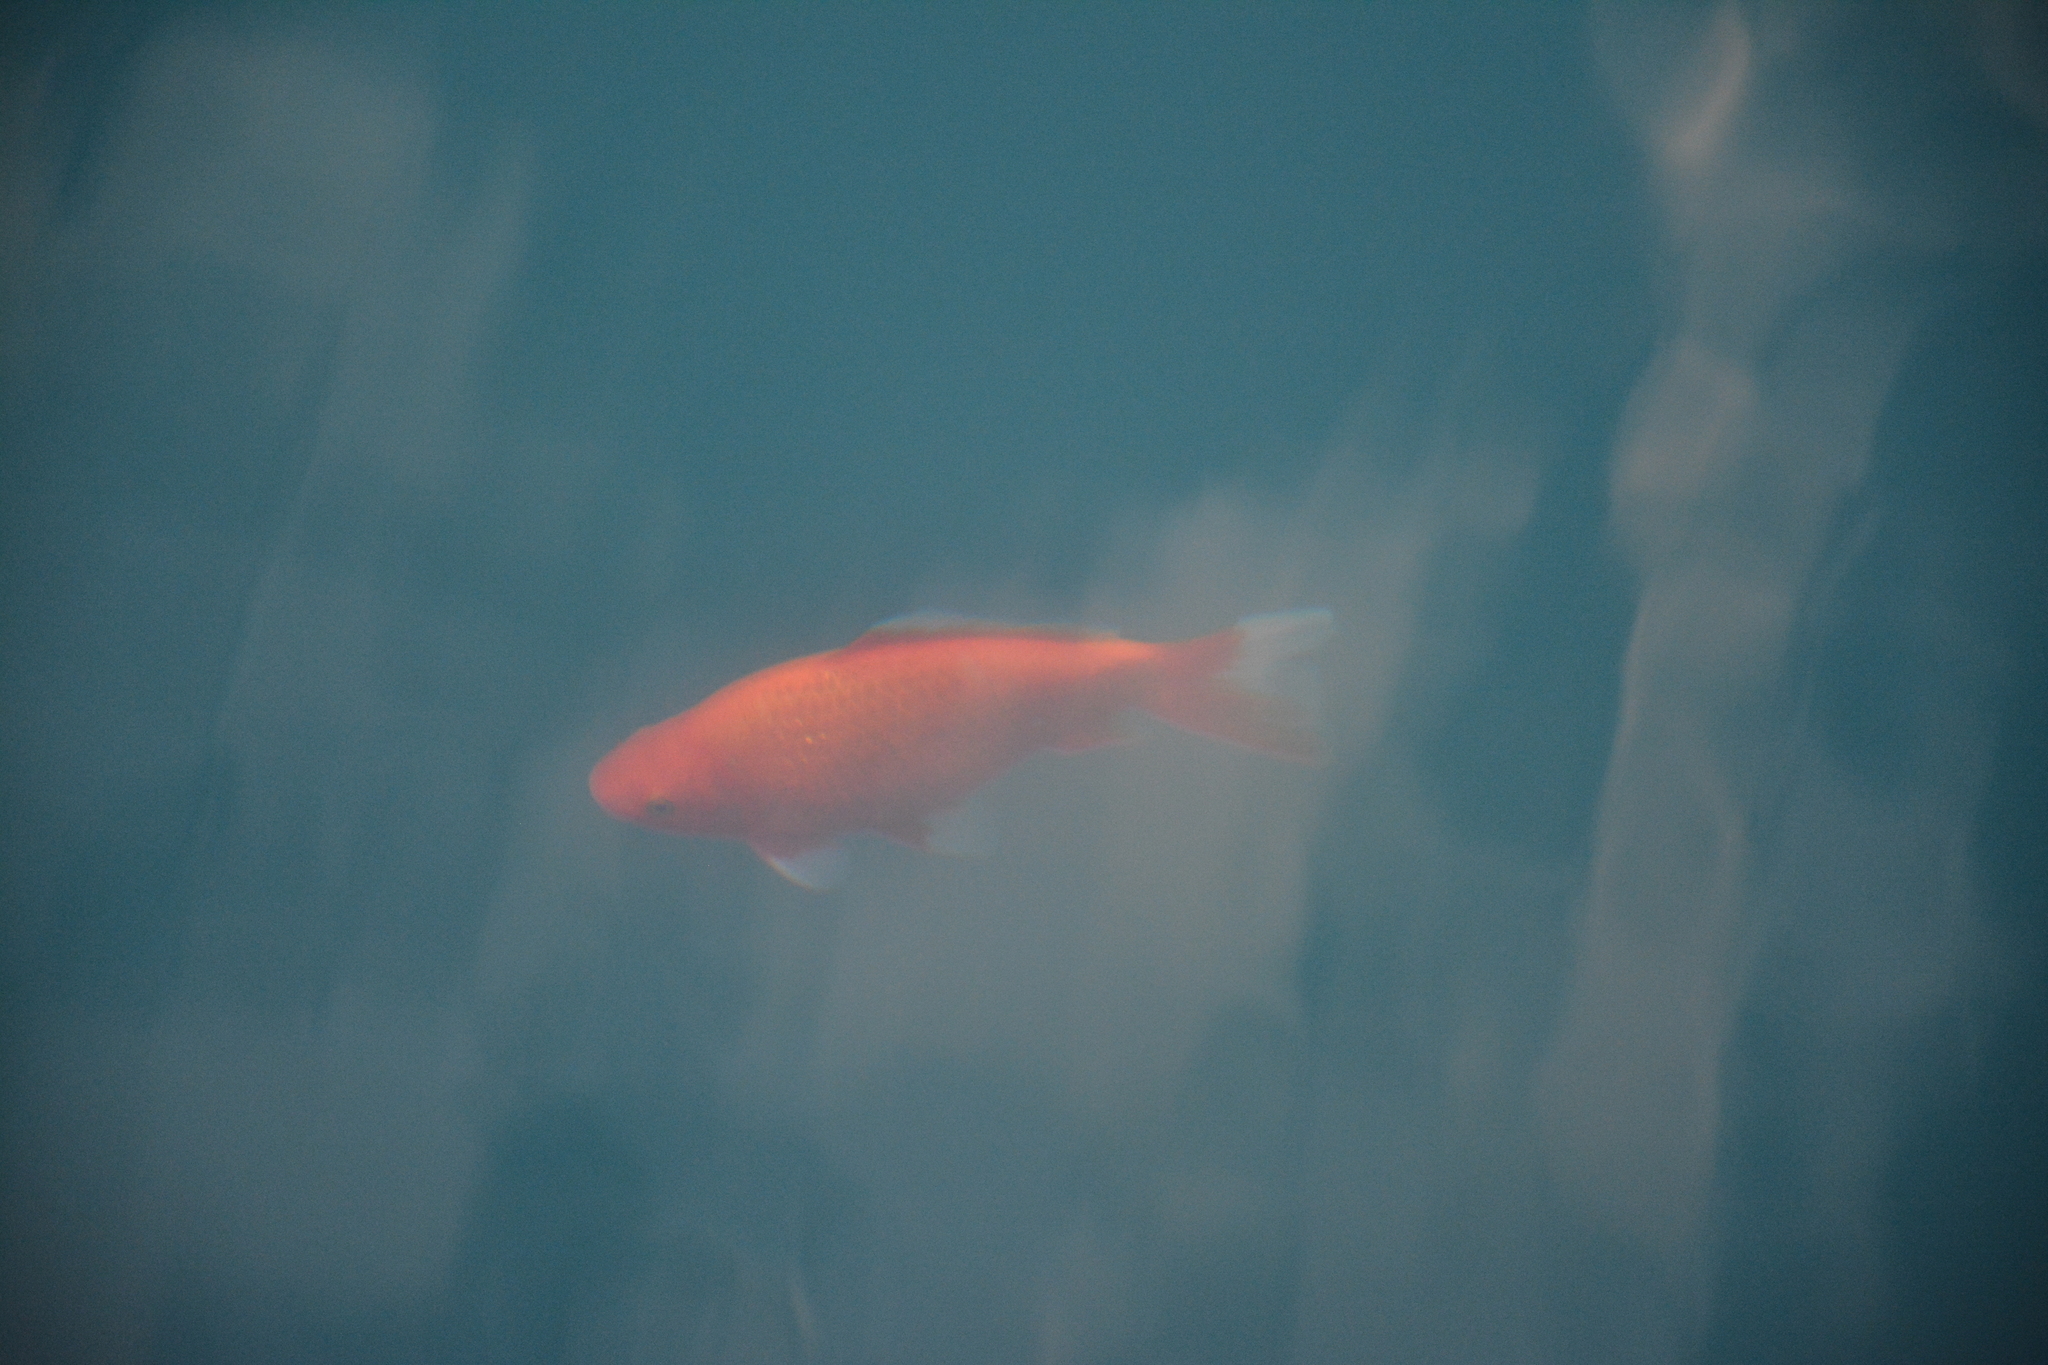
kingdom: Animalia
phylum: Chordata
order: Cypriniformes
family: Cyprinidae
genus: Carassius
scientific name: Carassius auratus
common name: Goldfish
